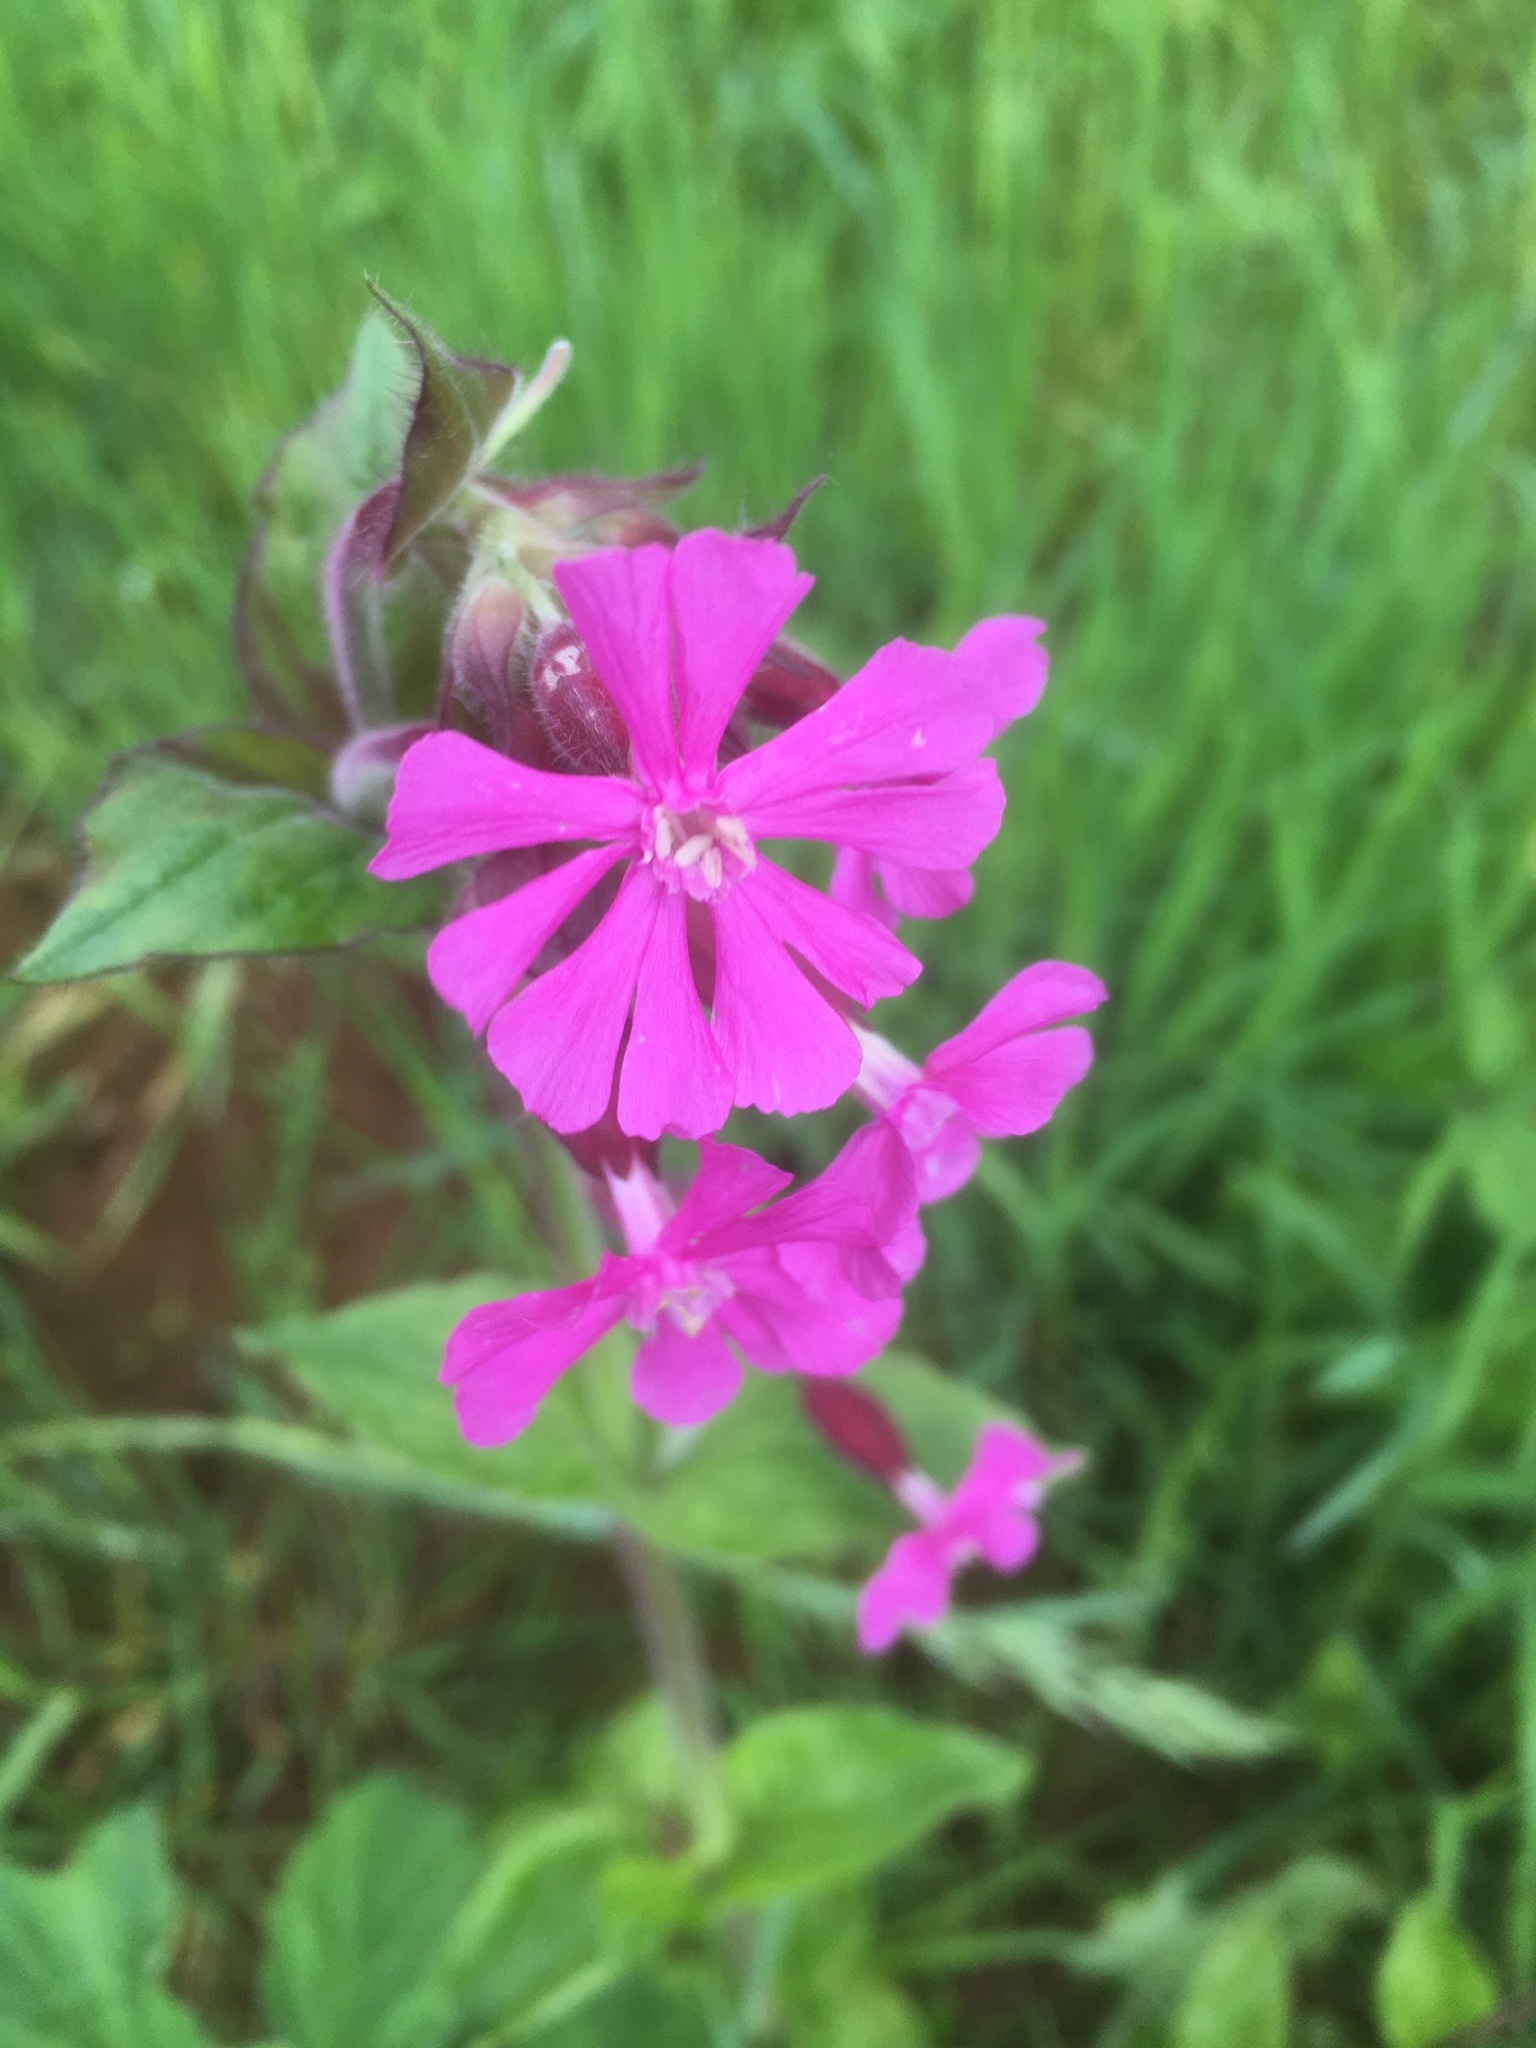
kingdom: Plantae
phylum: Tracheophyta
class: Magnoliopsida
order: Caryophyllales
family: Caryophyllaceae
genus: Silene
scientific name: Silene dioica
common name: Red campion
